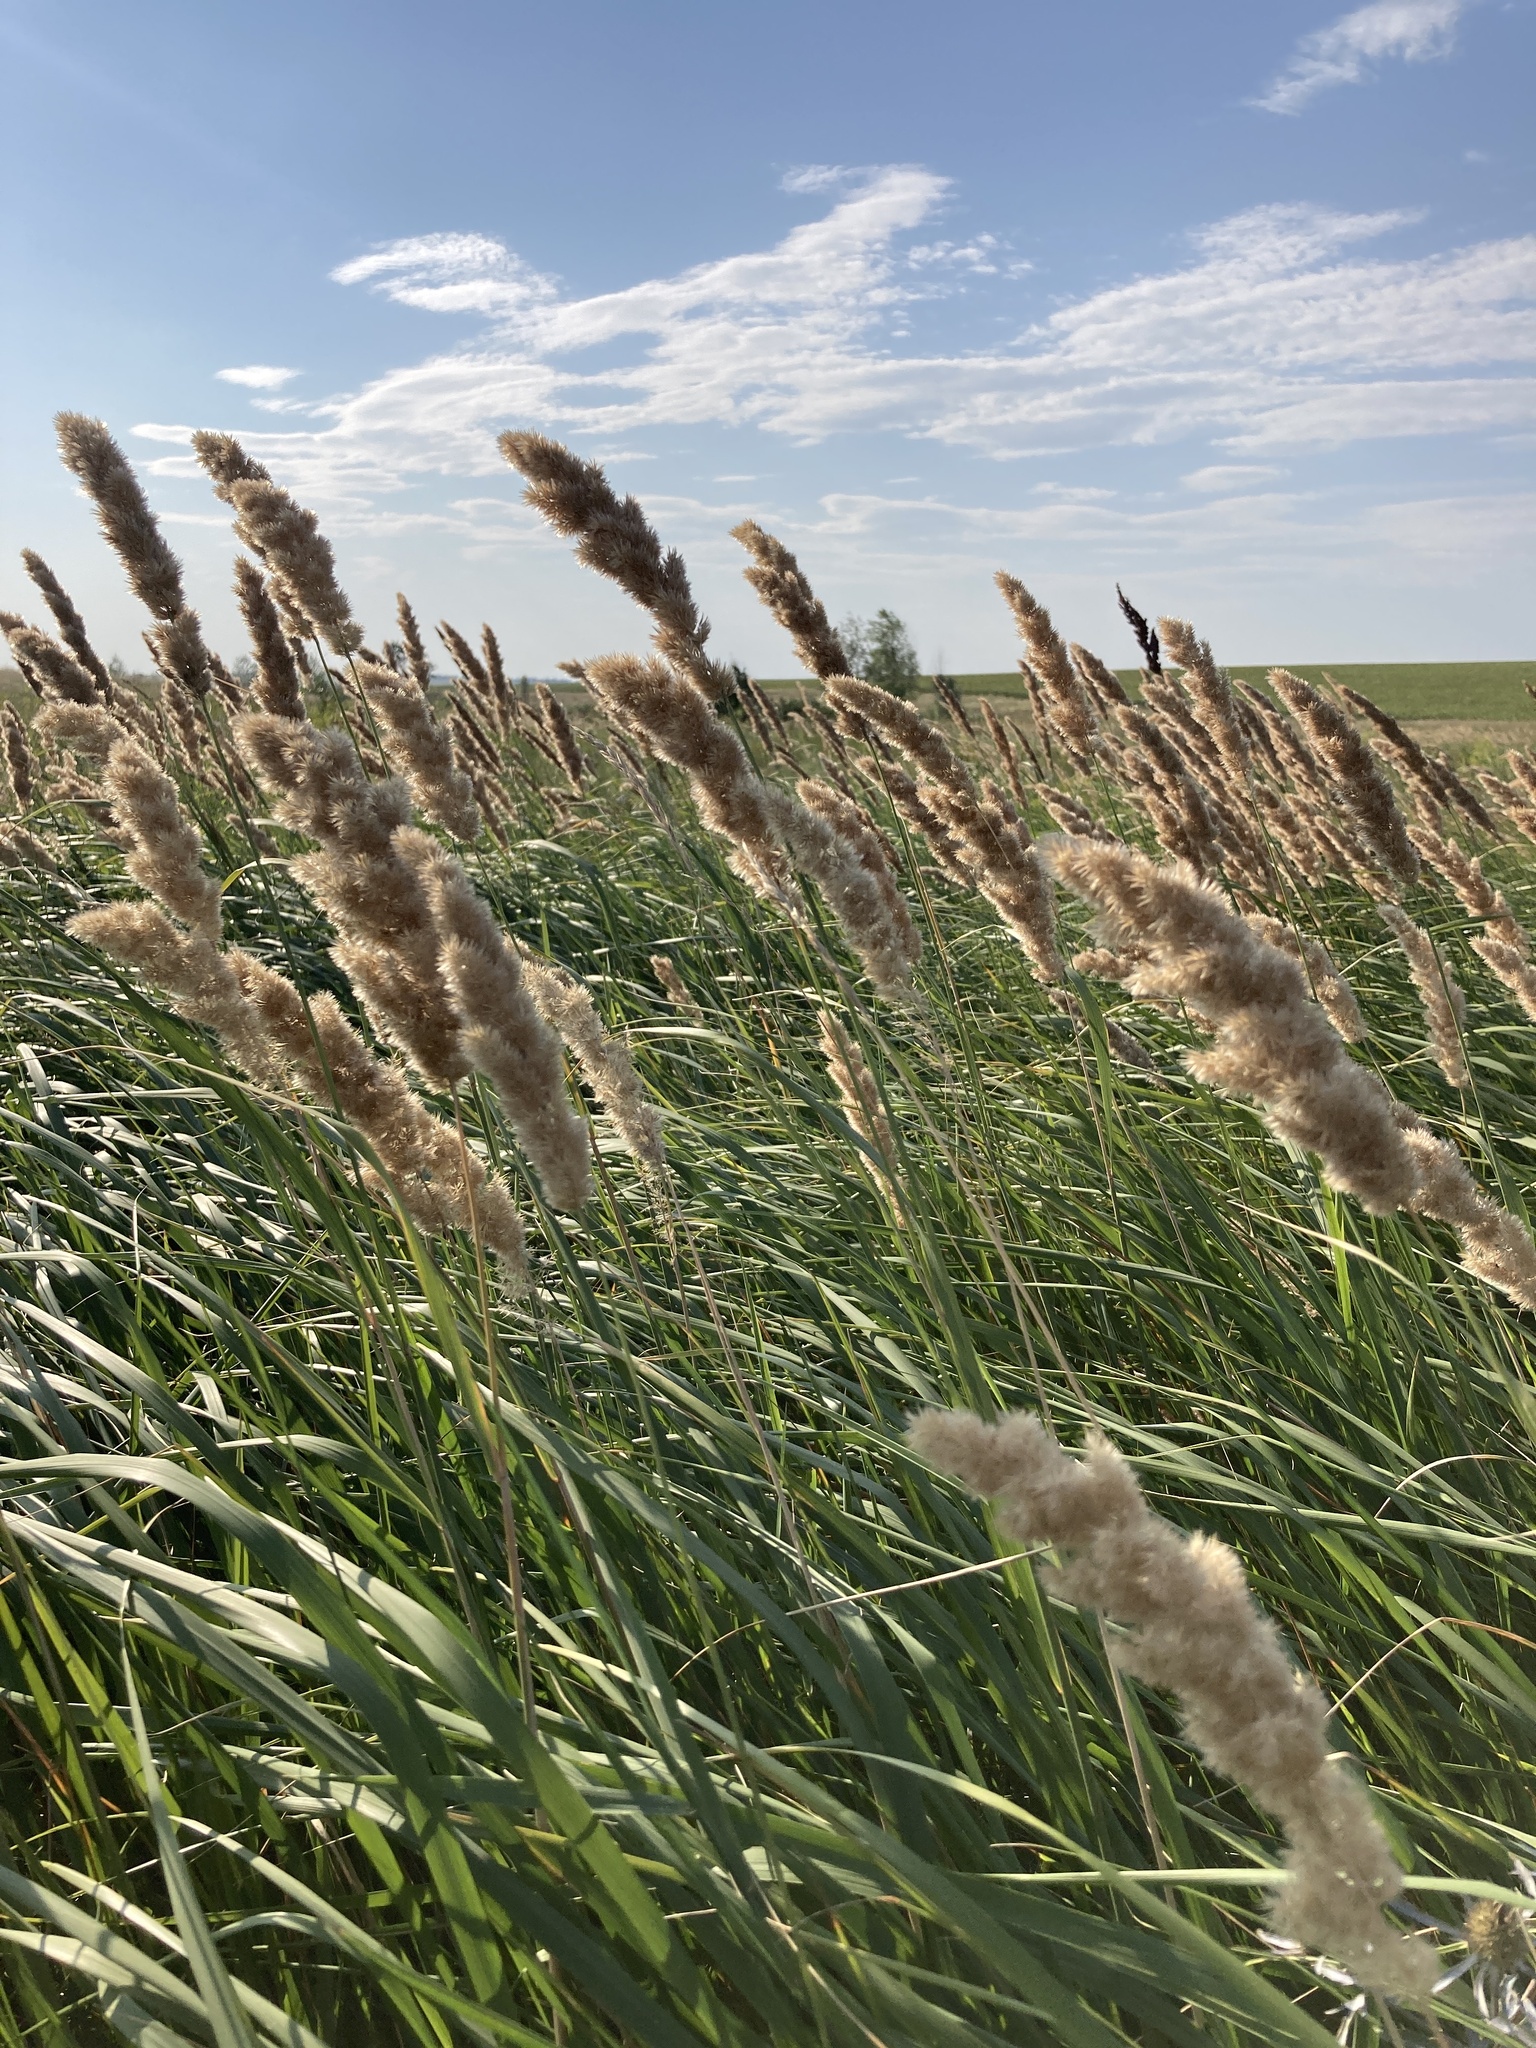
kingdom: Plantae
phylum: Tracheophyta
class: Liliopsida
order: Poales
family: Poaceae
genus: Calamagrostis
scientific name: Calamagrostis epigejos
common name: Wood small-reed
